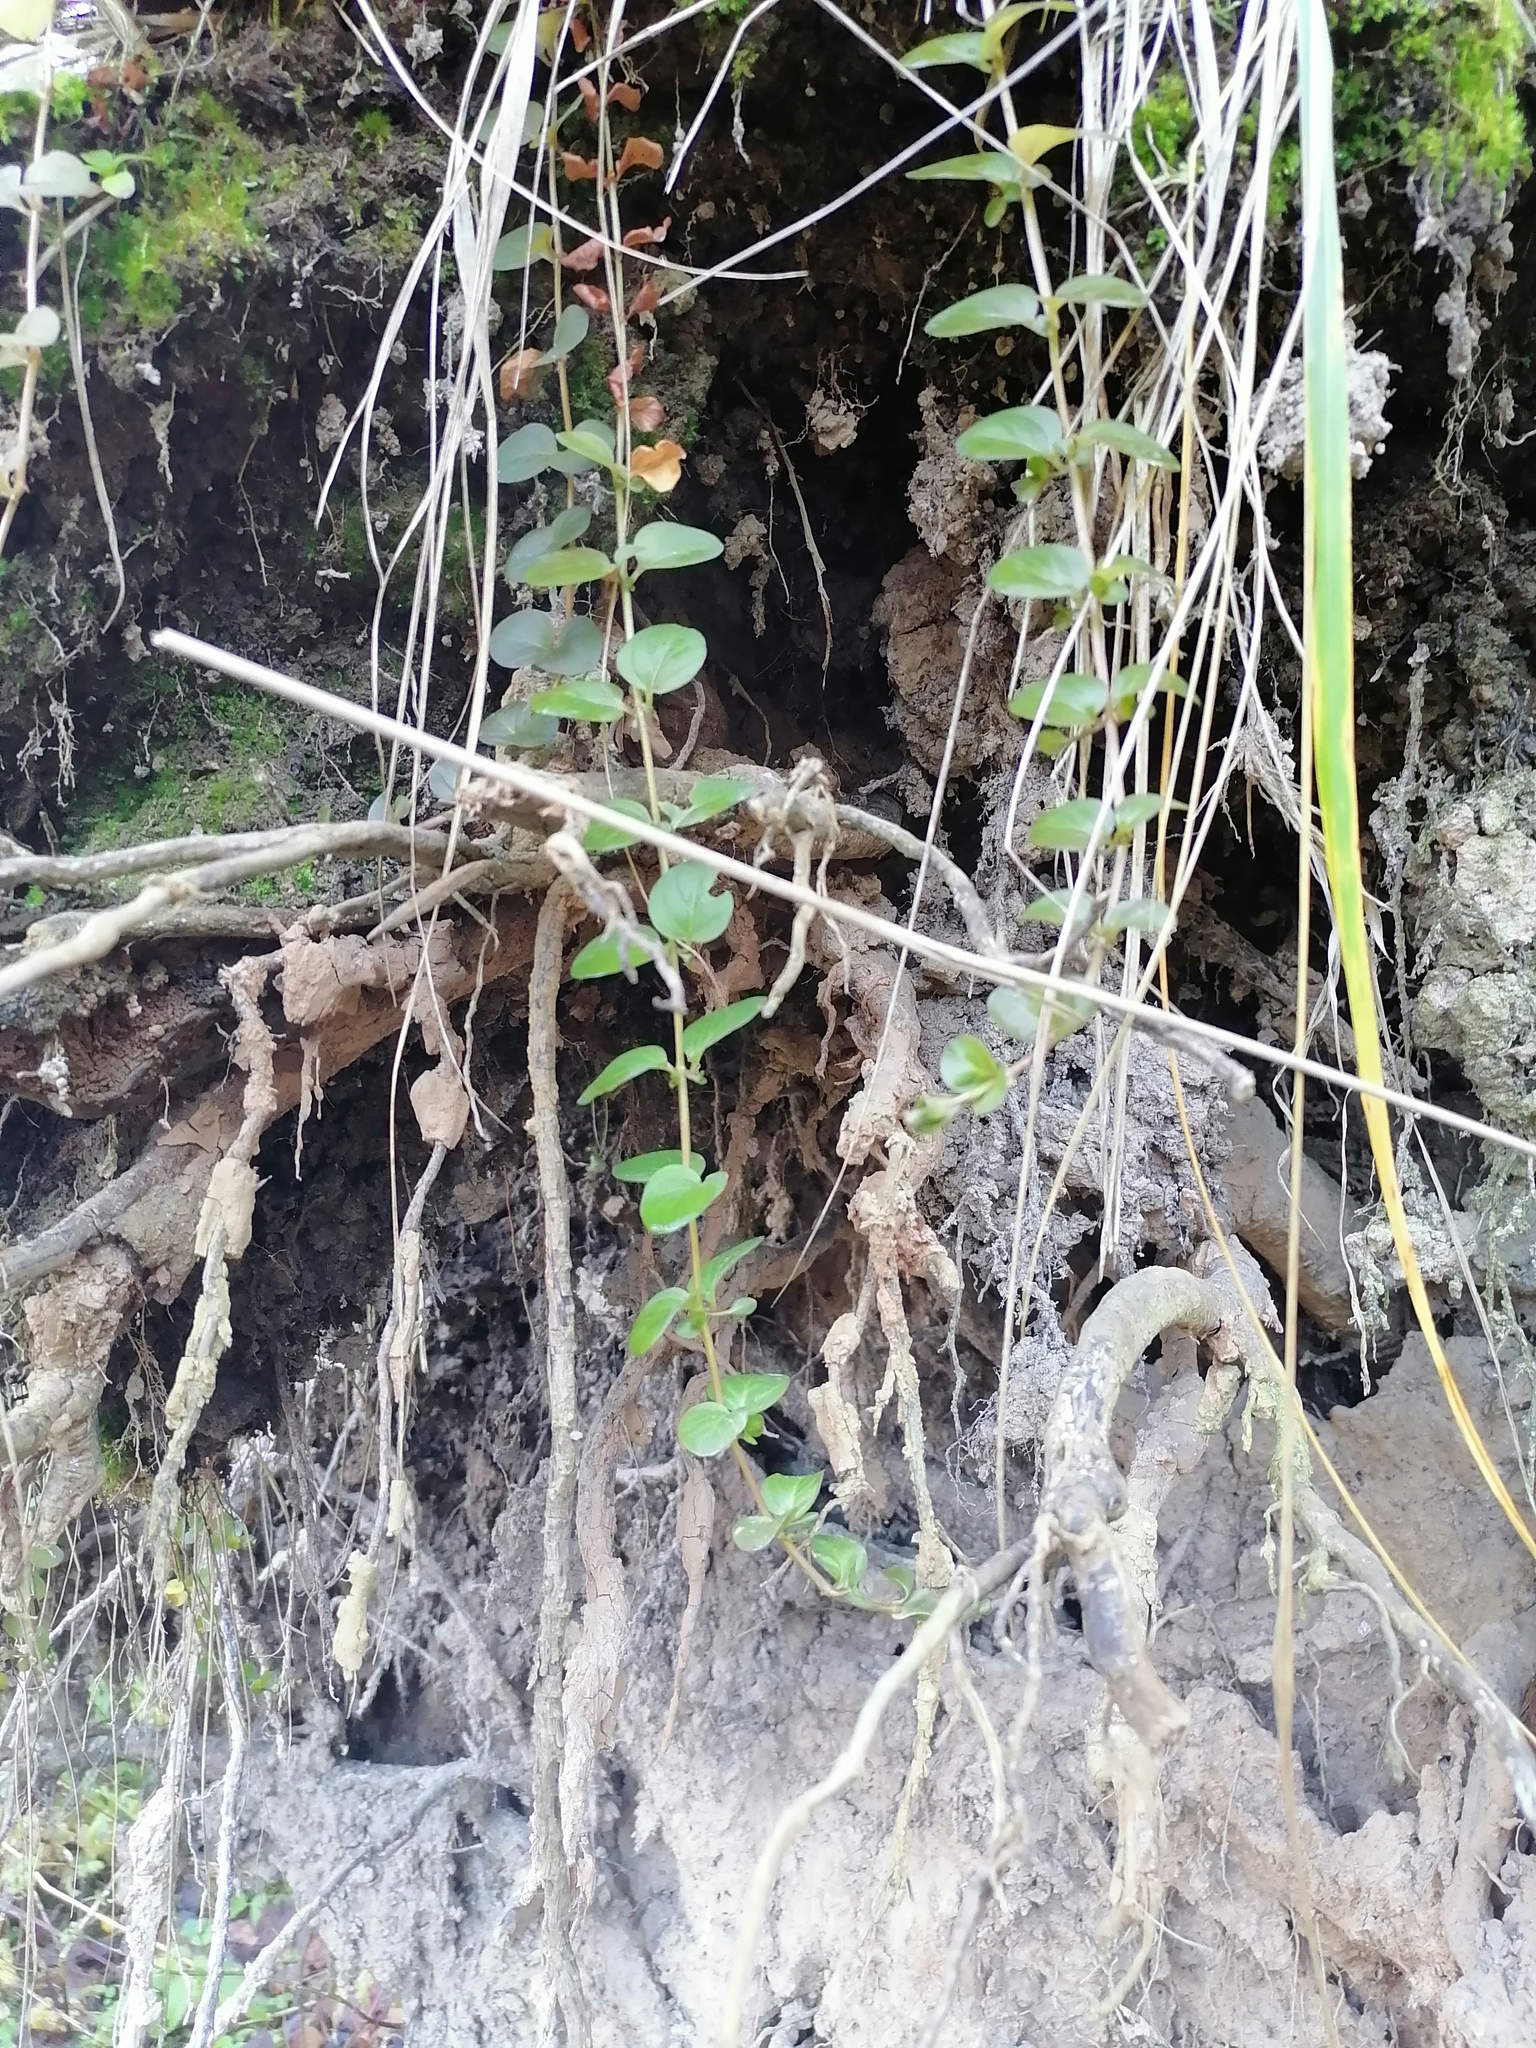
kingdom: Plantae
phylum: Tracheophyta
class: Magnoliopsida
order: Ericales
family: Primulaceae
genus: Lysimachia
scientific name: Lysimachia nummularia
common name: Moneywort
